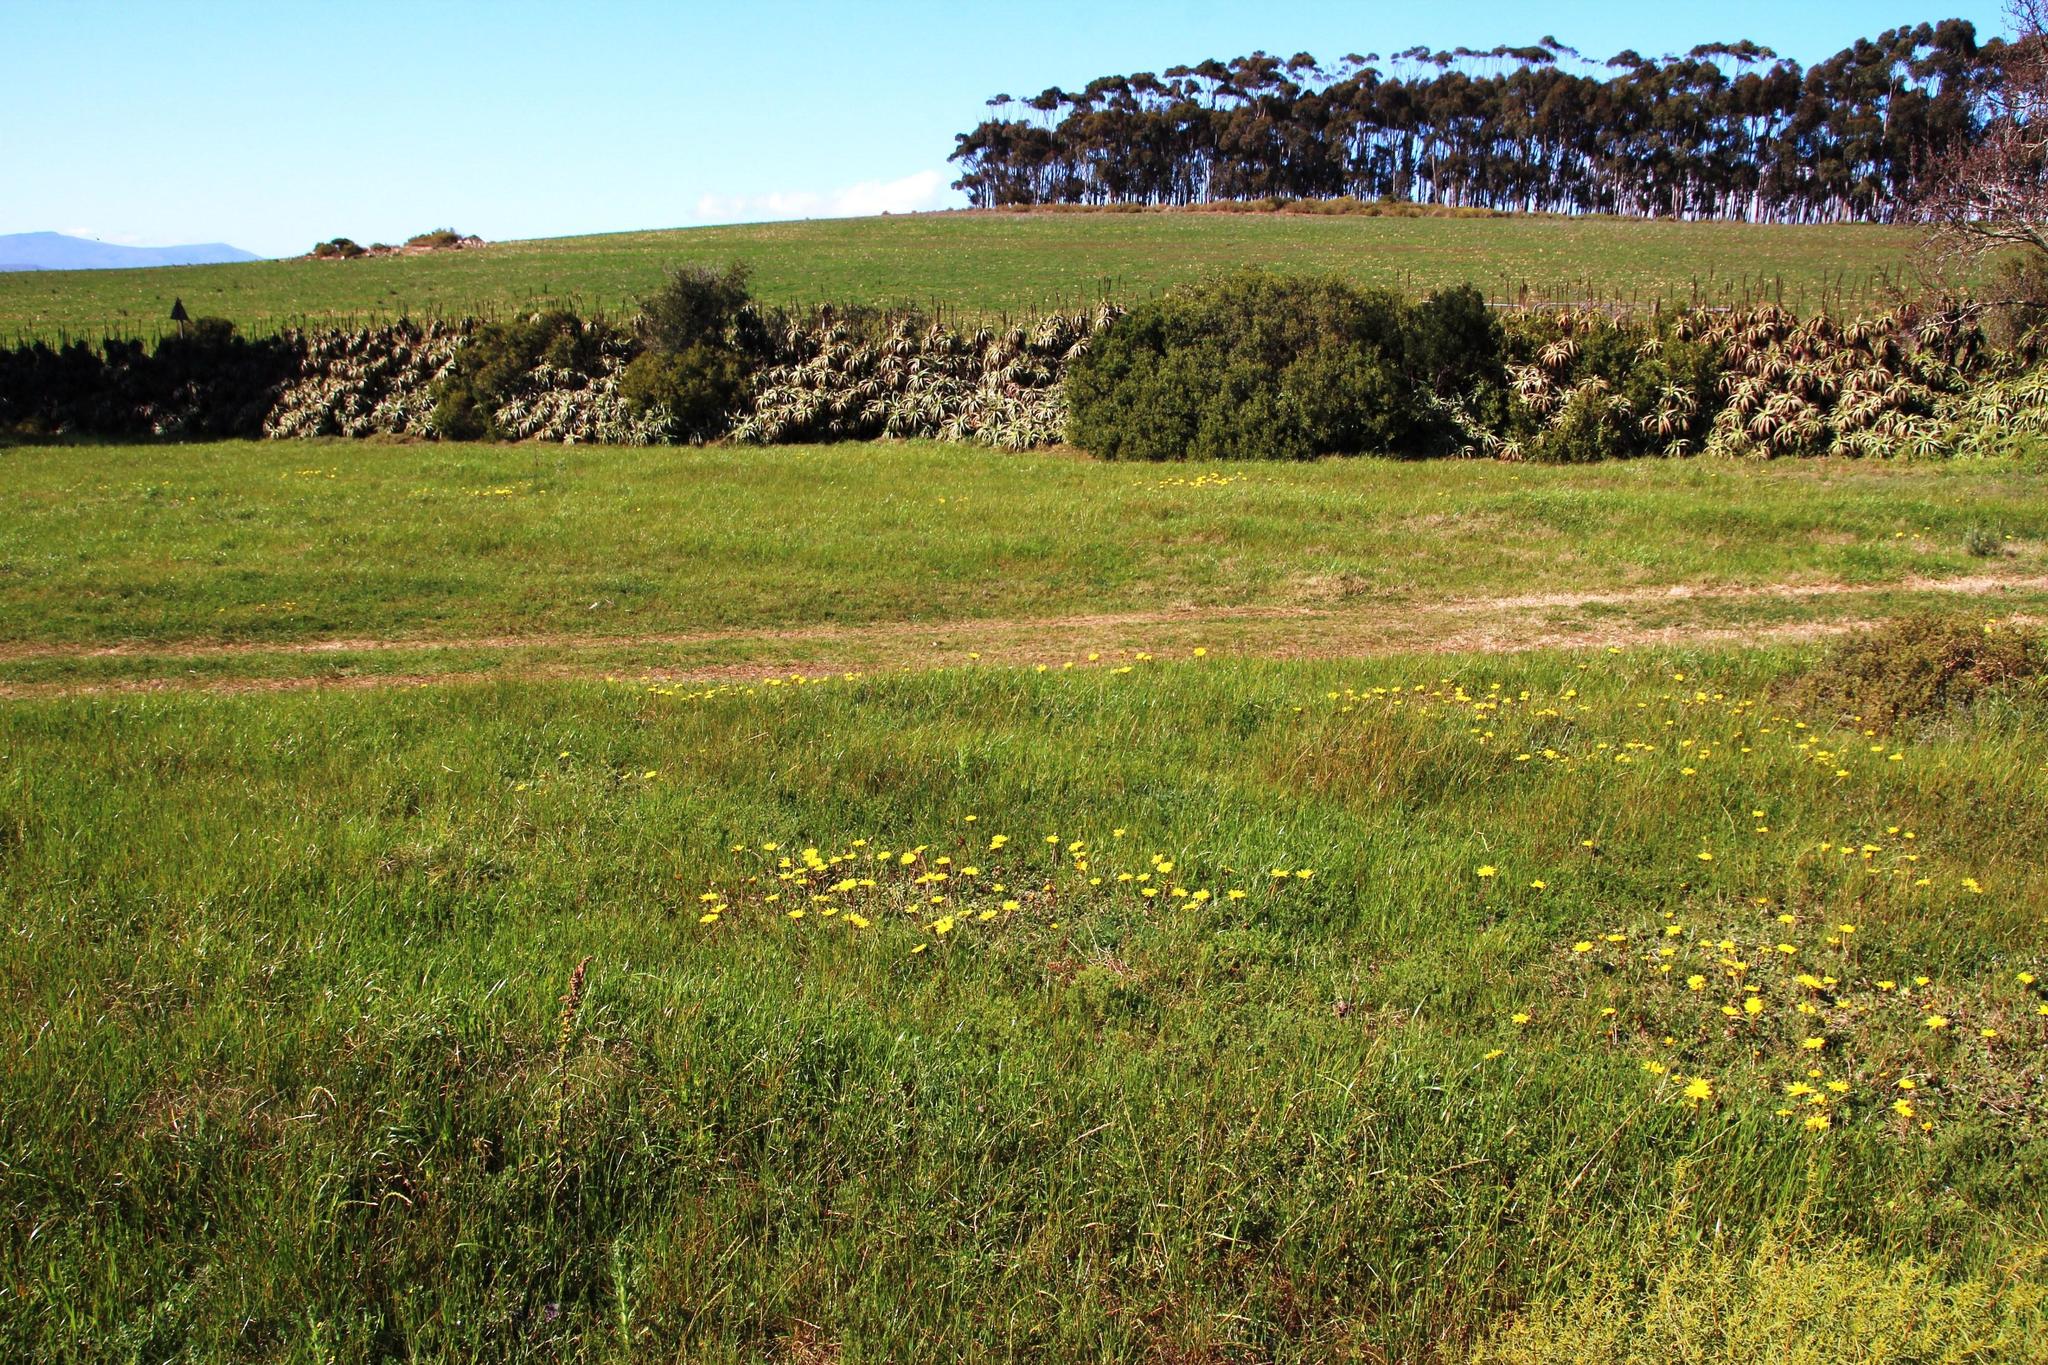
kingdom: Plantae
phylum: Tracheophyta
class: Magnoliopsida
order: Asterales
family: Asteraceae
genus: Arctotheca
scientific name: Arctotheca calendula
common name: Capeweed
